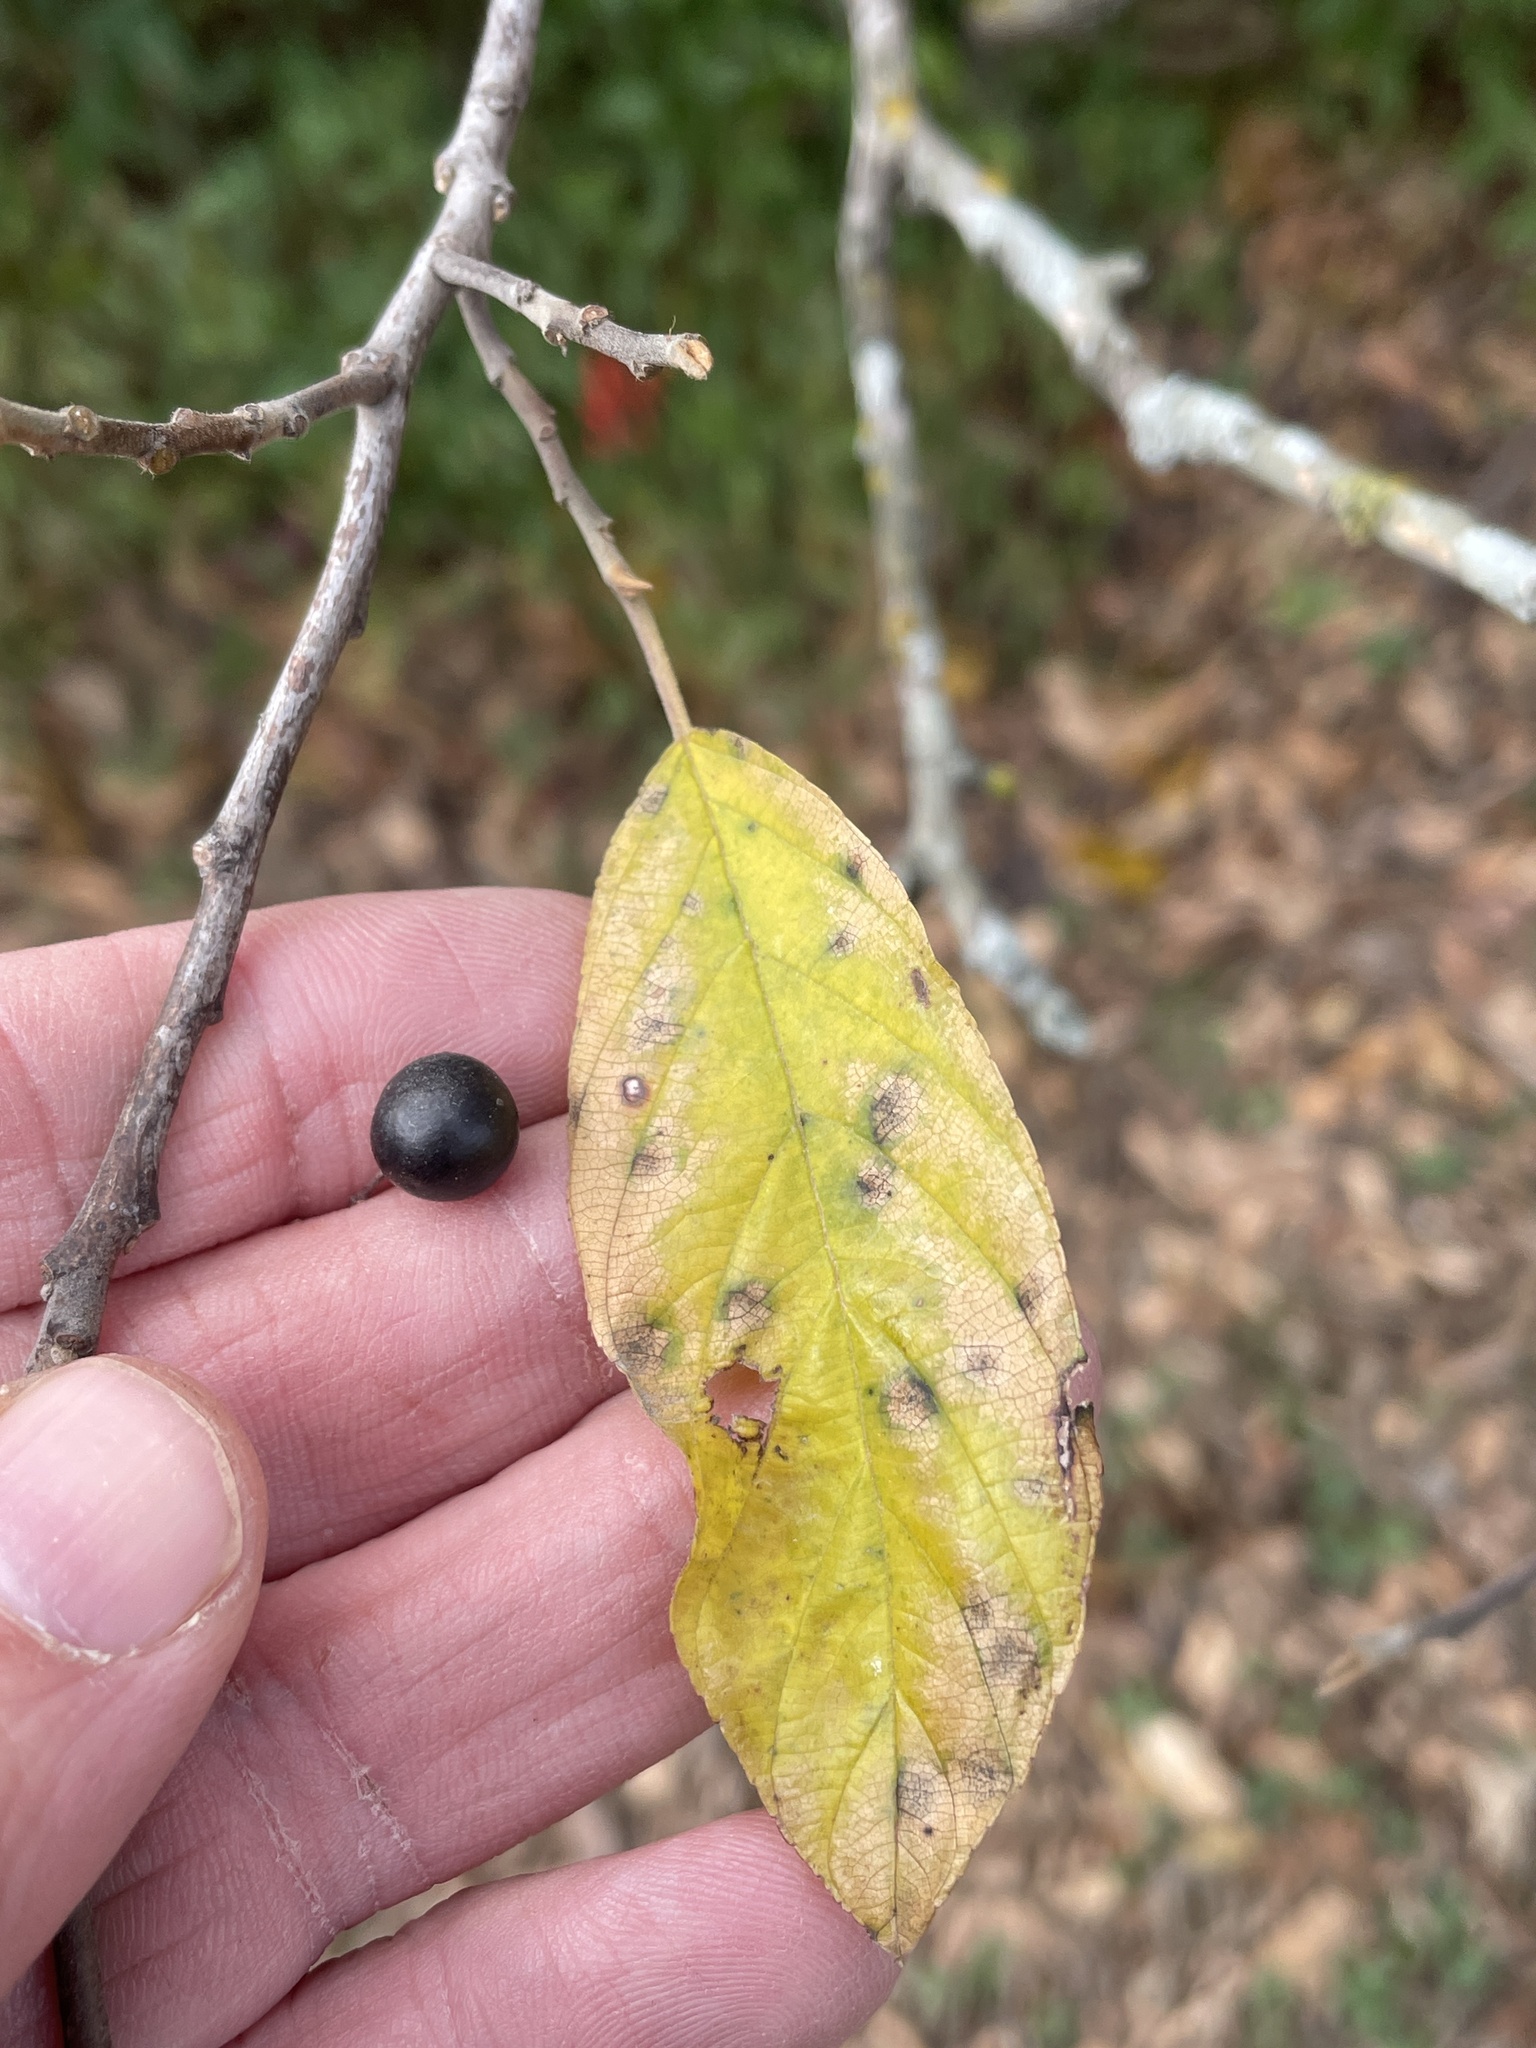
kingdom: Plantae
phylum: Tracheophyta
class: Magnoliopsida
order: Rosales
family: Rhamnaceae
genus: Frangula
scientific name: Frangula caroliniana
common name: Carolina buckthorn
